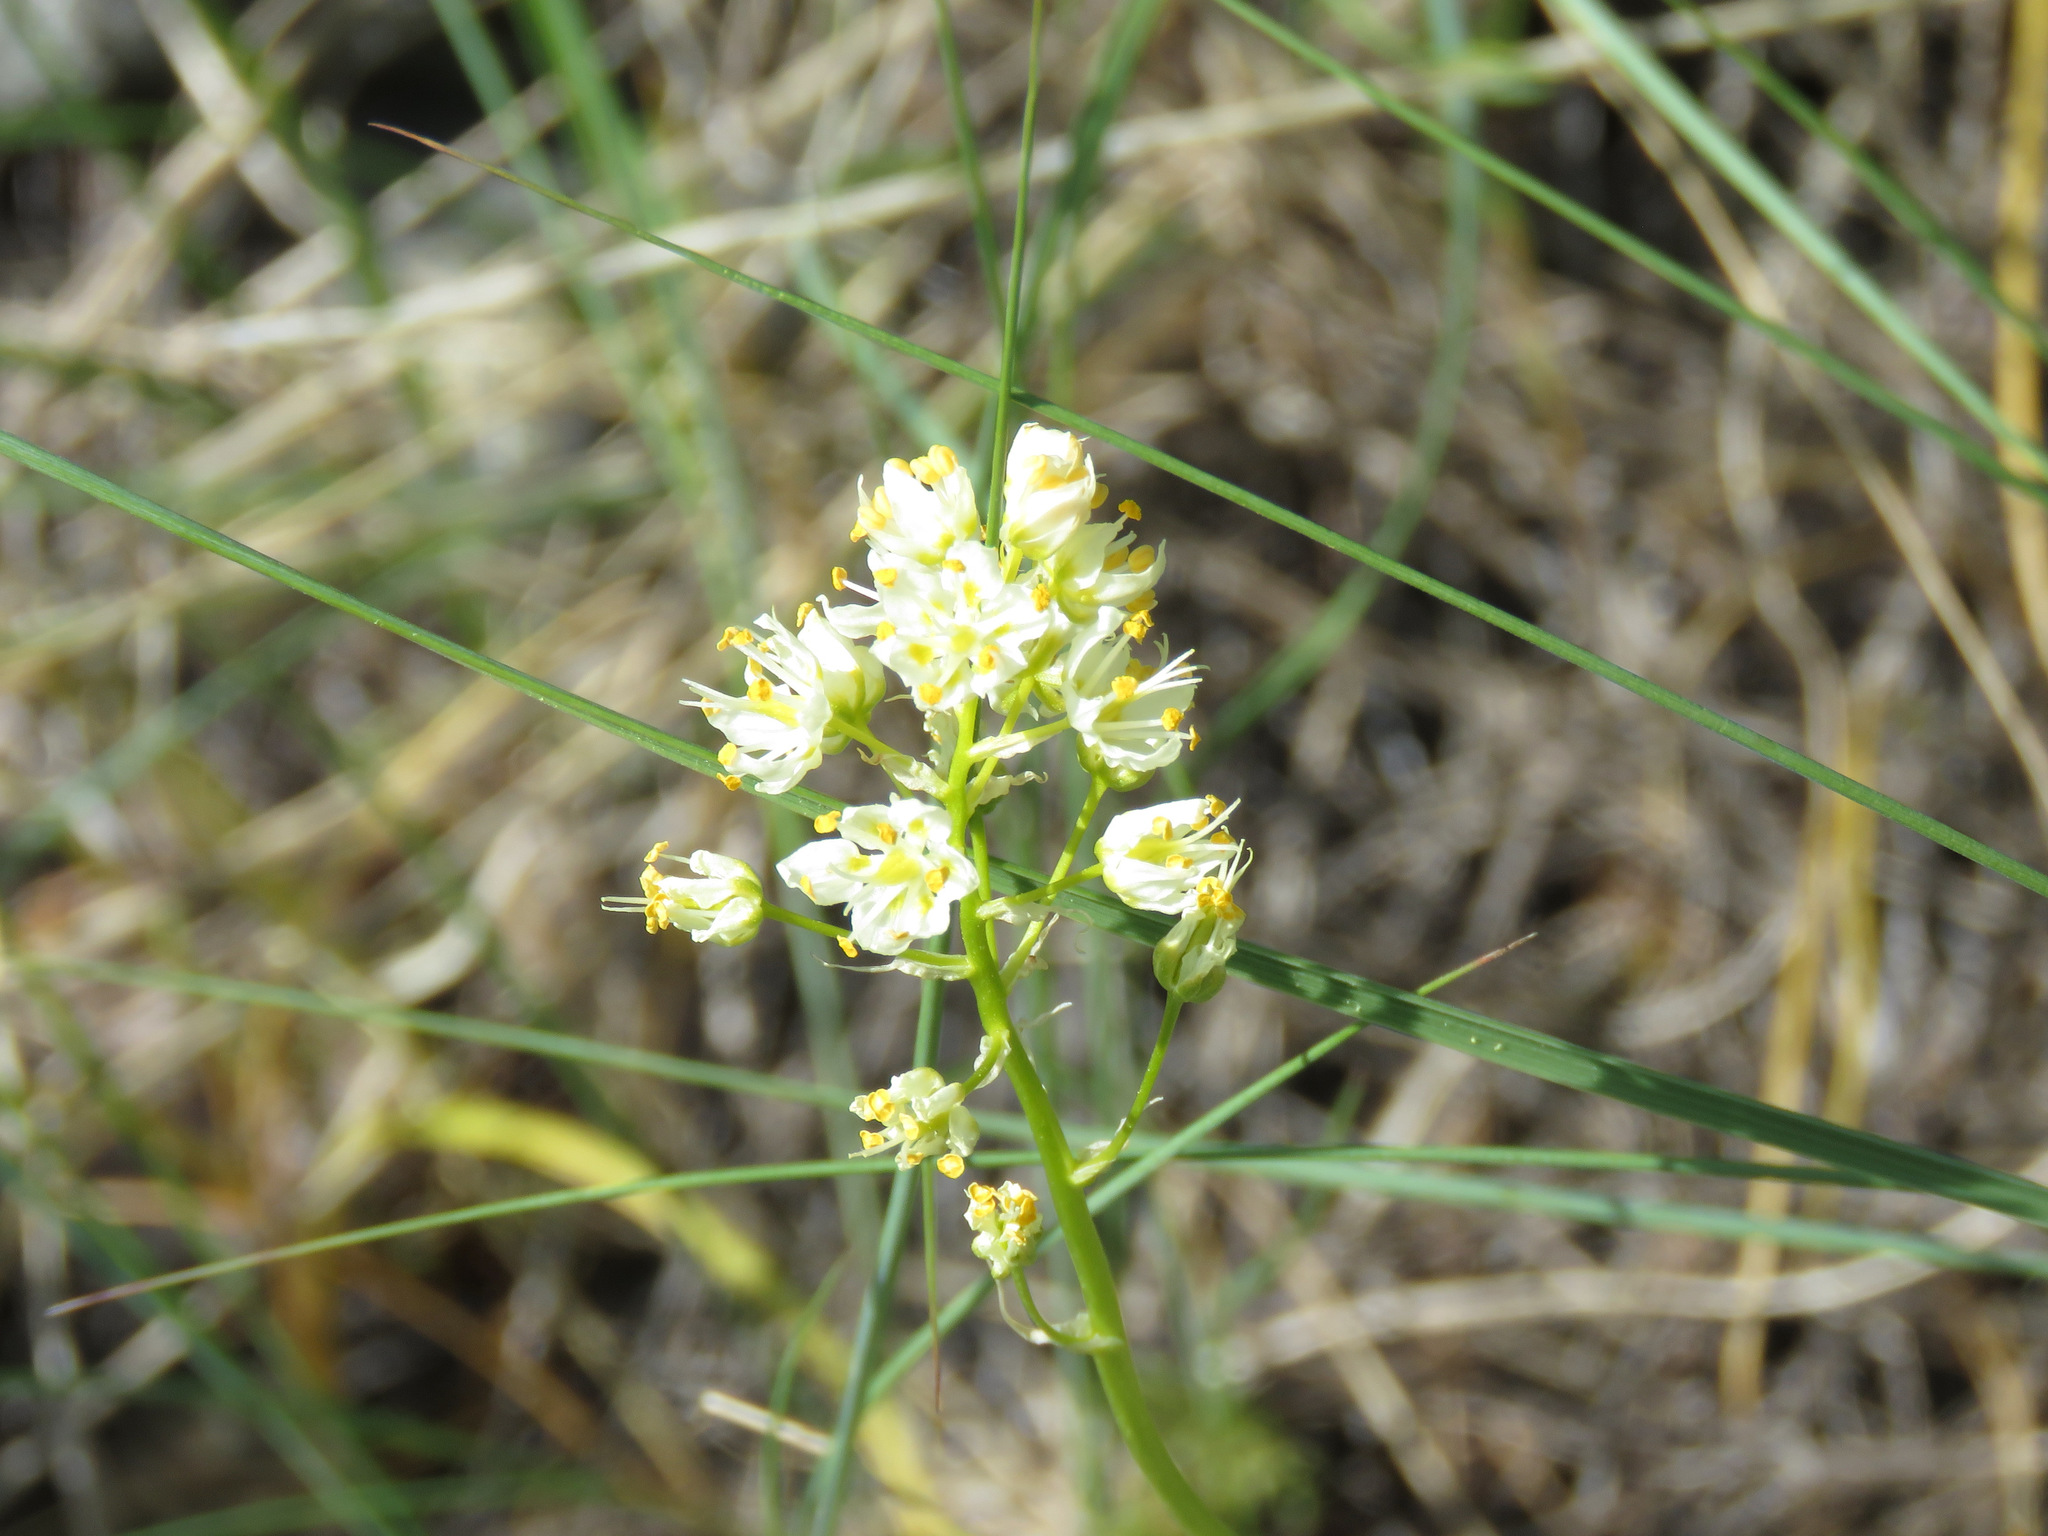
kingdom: Plantae
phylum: Tracheophyta
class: Liliopsida
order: Liliales
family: Melanthiaceae
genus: Toxicoscordion
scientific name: Toxicoscordion venenosum
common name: Meadow death camas
